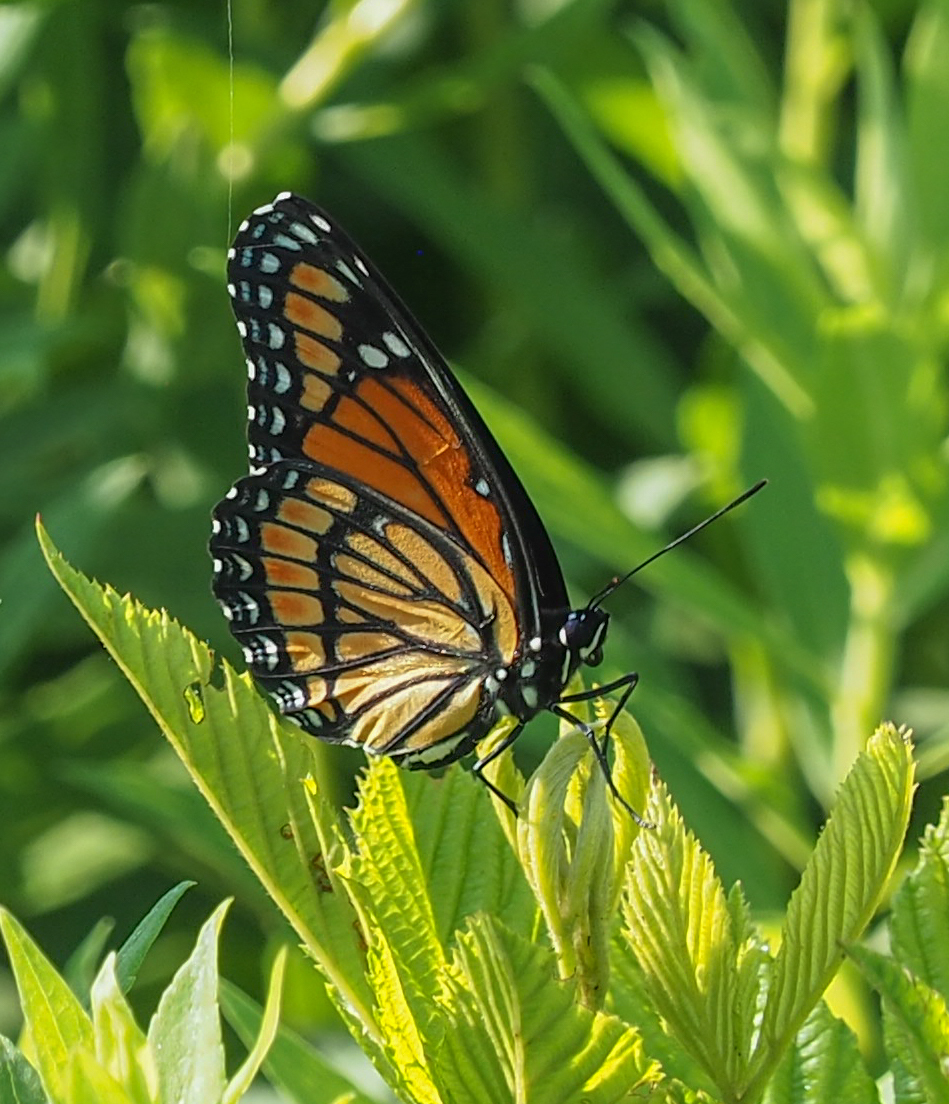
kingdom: Animalia
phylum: Arthropoda
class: Insecta
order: Lepidoptera
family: Nymphalidae
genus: Limenitis
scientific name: Limenitis archippus
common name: Viceroy
